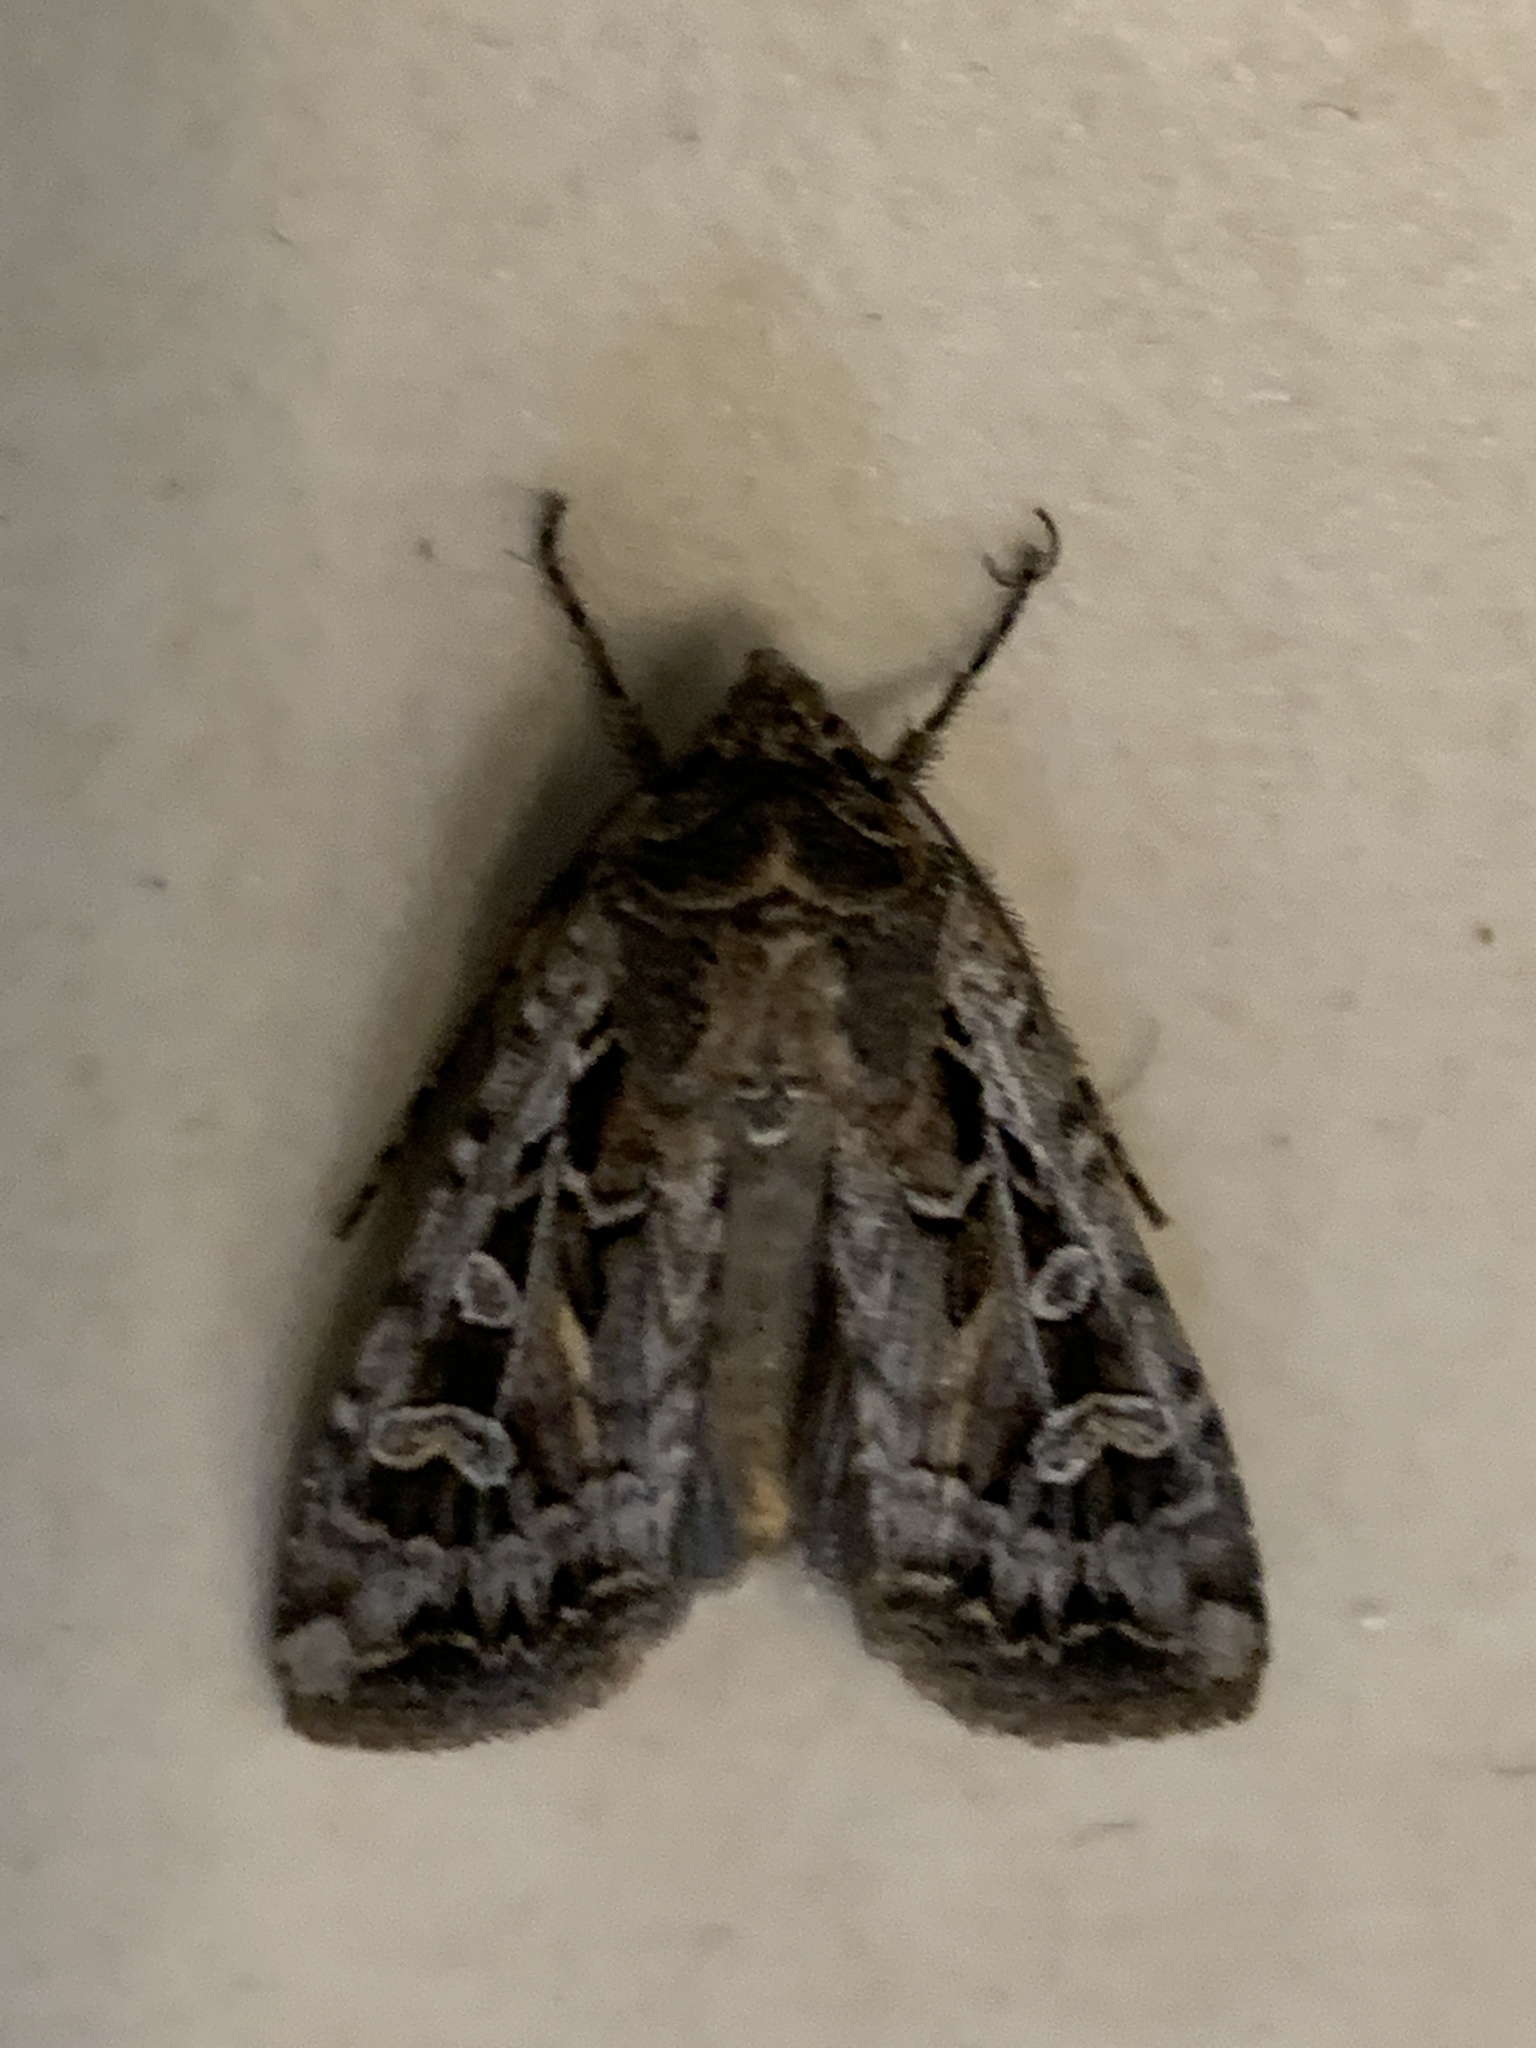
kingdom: Animalia
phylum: Arthropoda
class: Insecta
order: Lepidoptera
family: Noctuidae
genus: Euxoa
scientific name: Euxoa tessellata
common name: Striped cutworm
